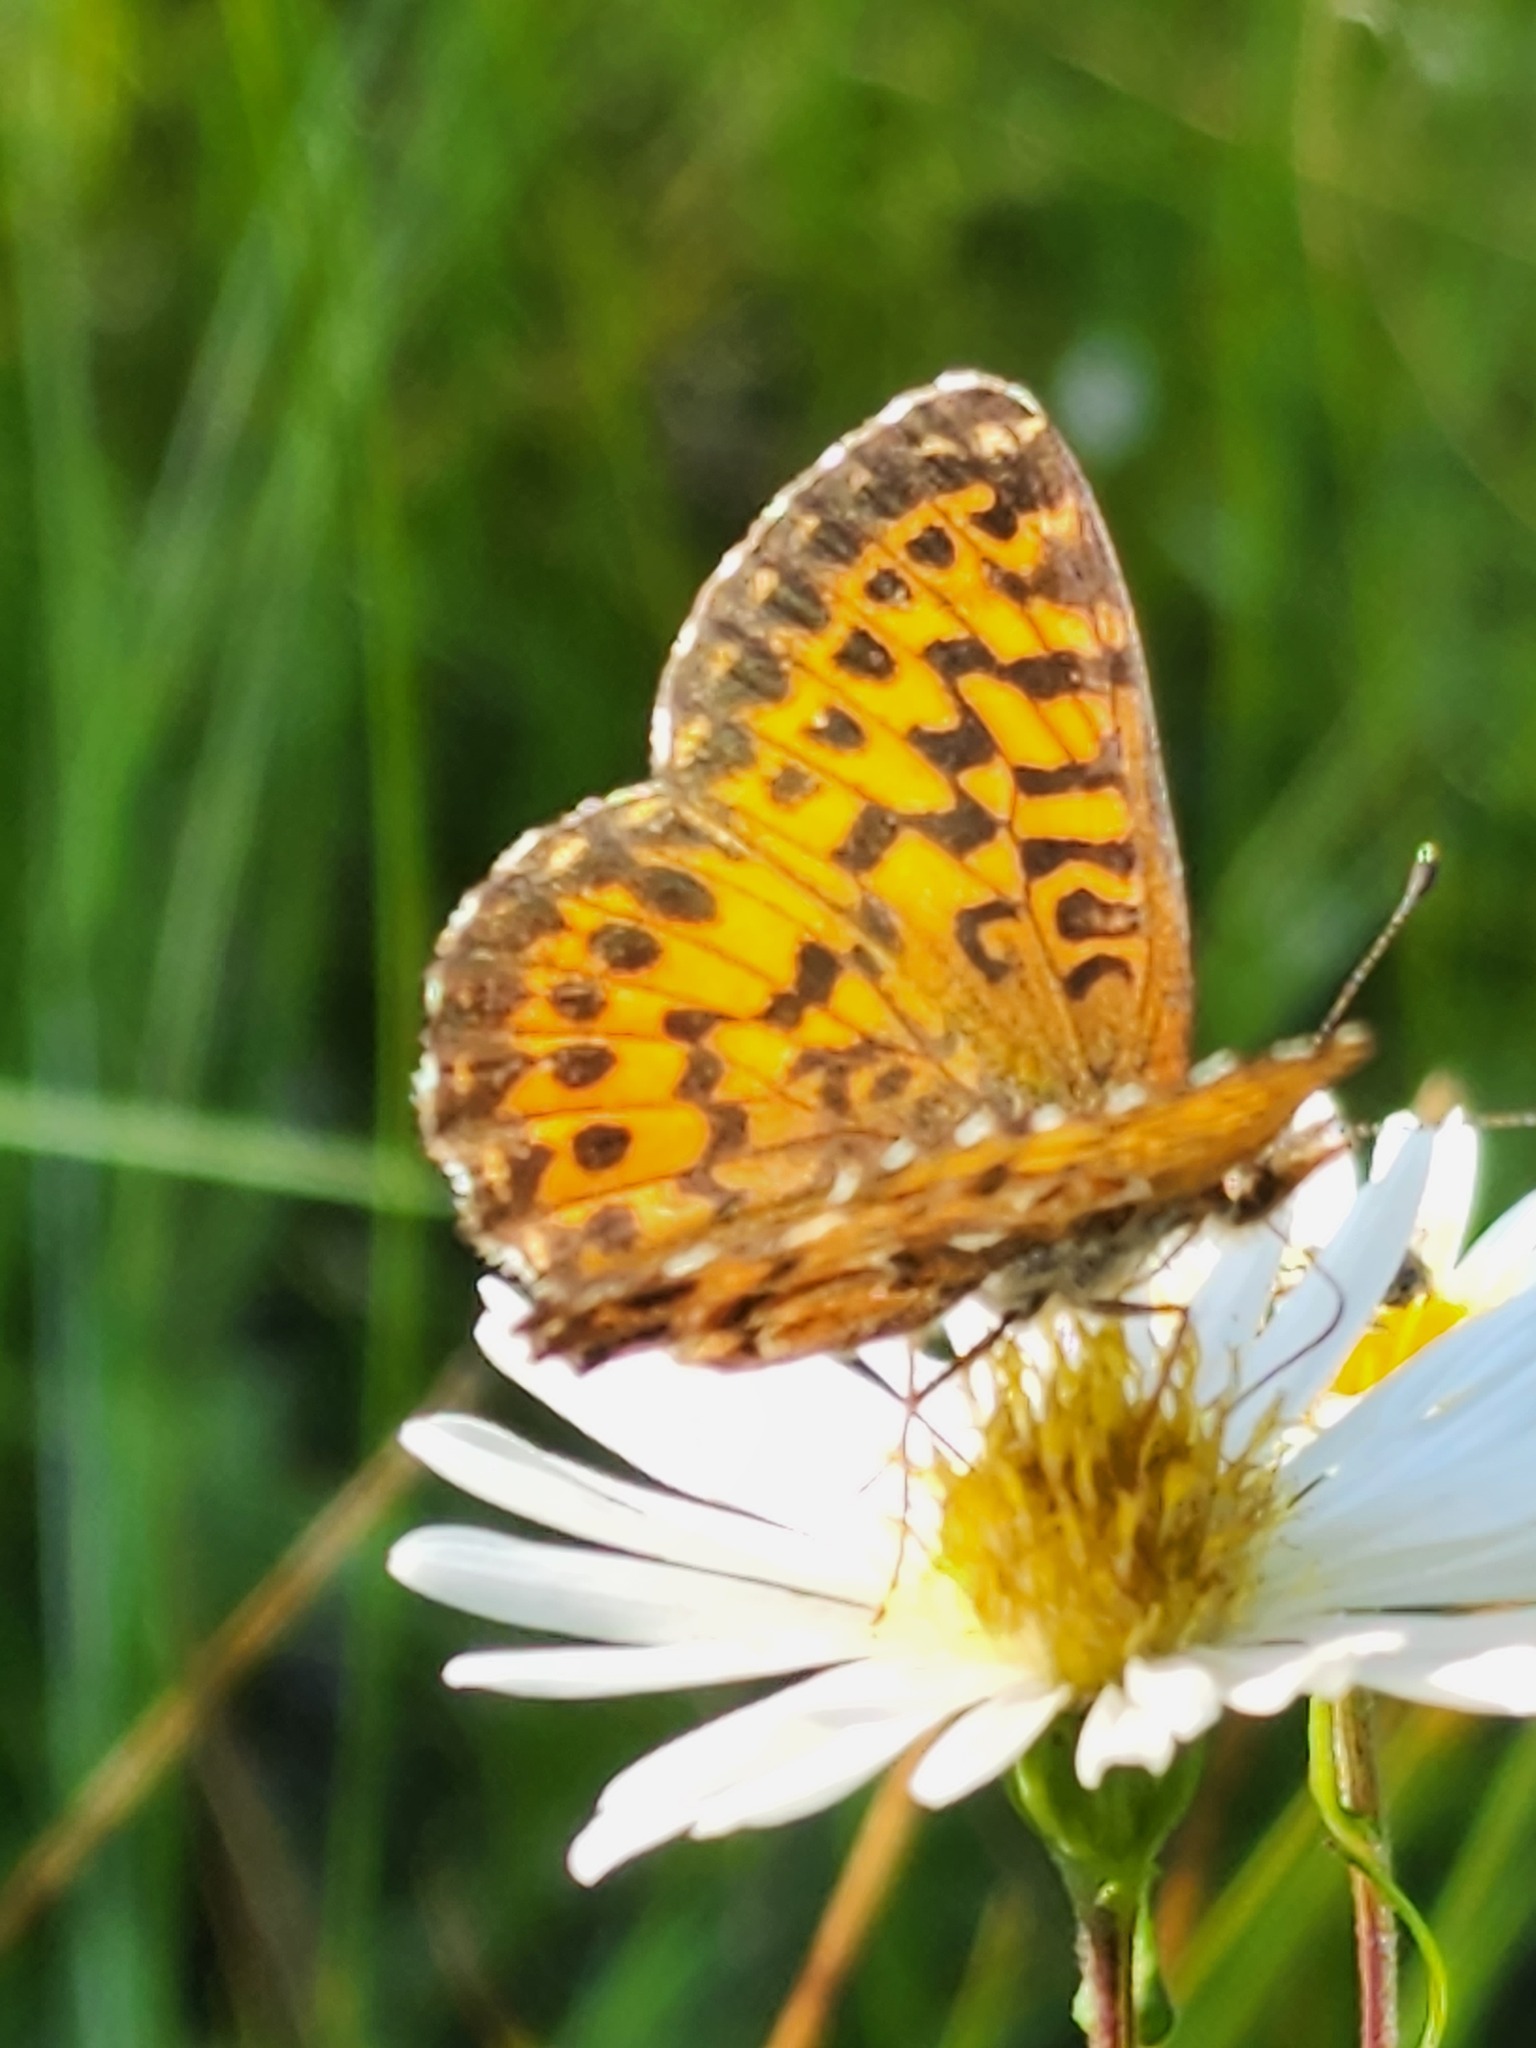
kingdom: Animalia
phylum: Arthropoda
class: Insecta
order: Lepidoptera
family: Nymphalidae
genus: Boloria
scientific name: Boloria chariclea
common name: Arctic fritillary
